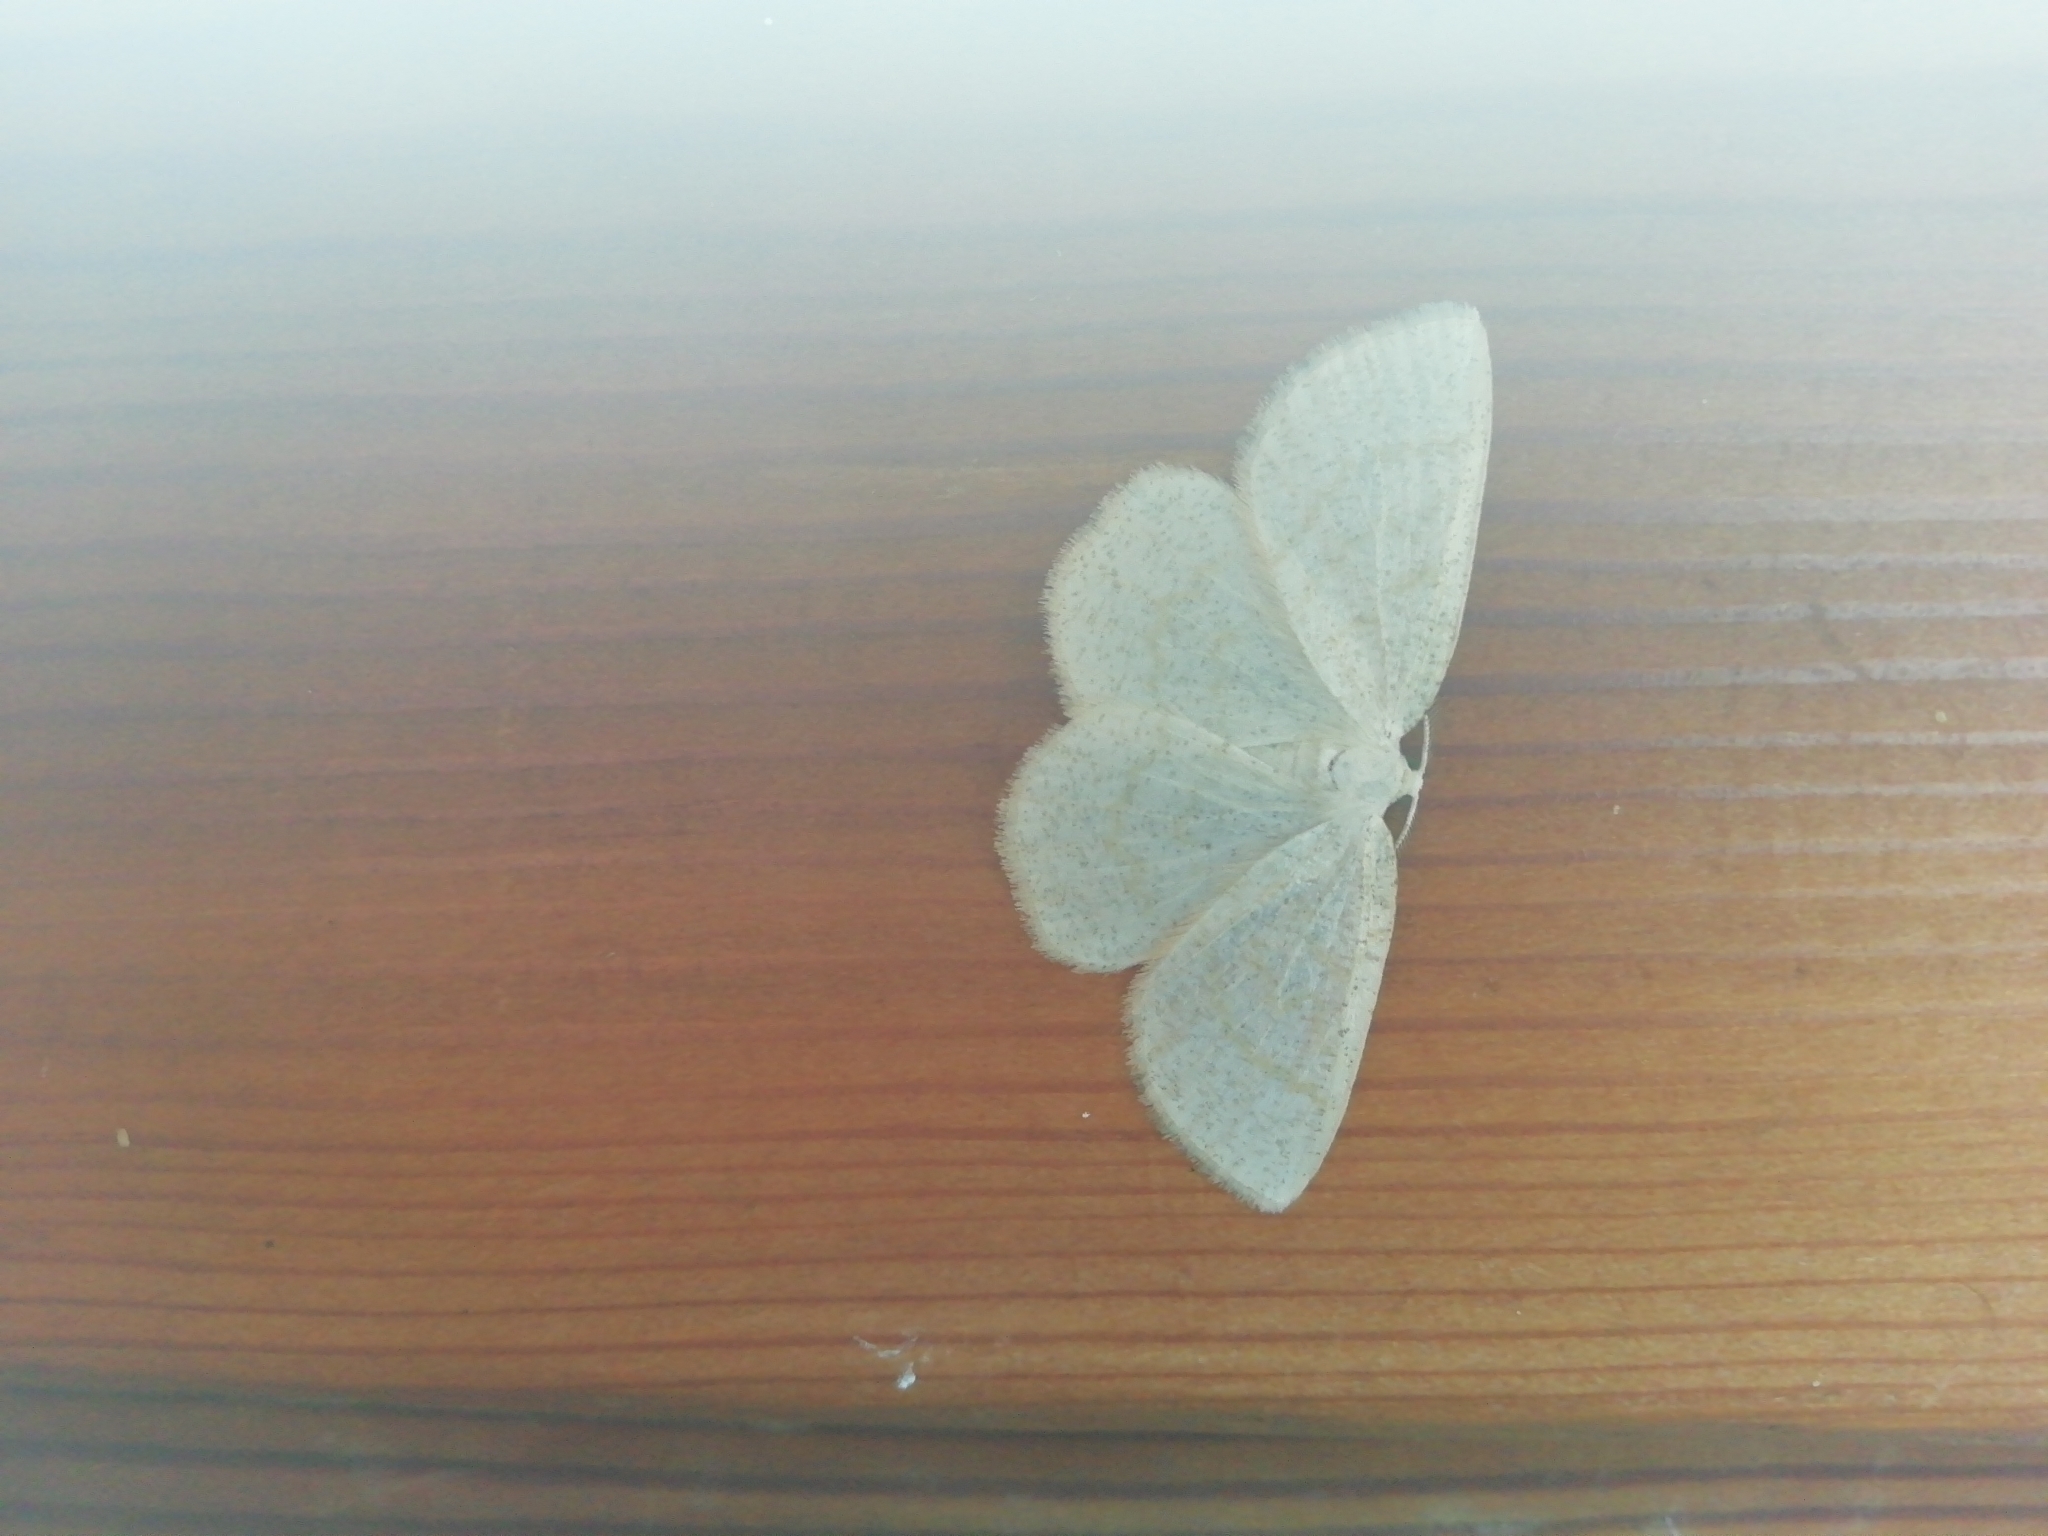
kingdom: Animalia
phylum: Arthropoda
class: Insecta
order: Lepidoptera
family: Geometridae
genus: Cabera
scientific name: Cabera exanthemata
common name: Common wave
